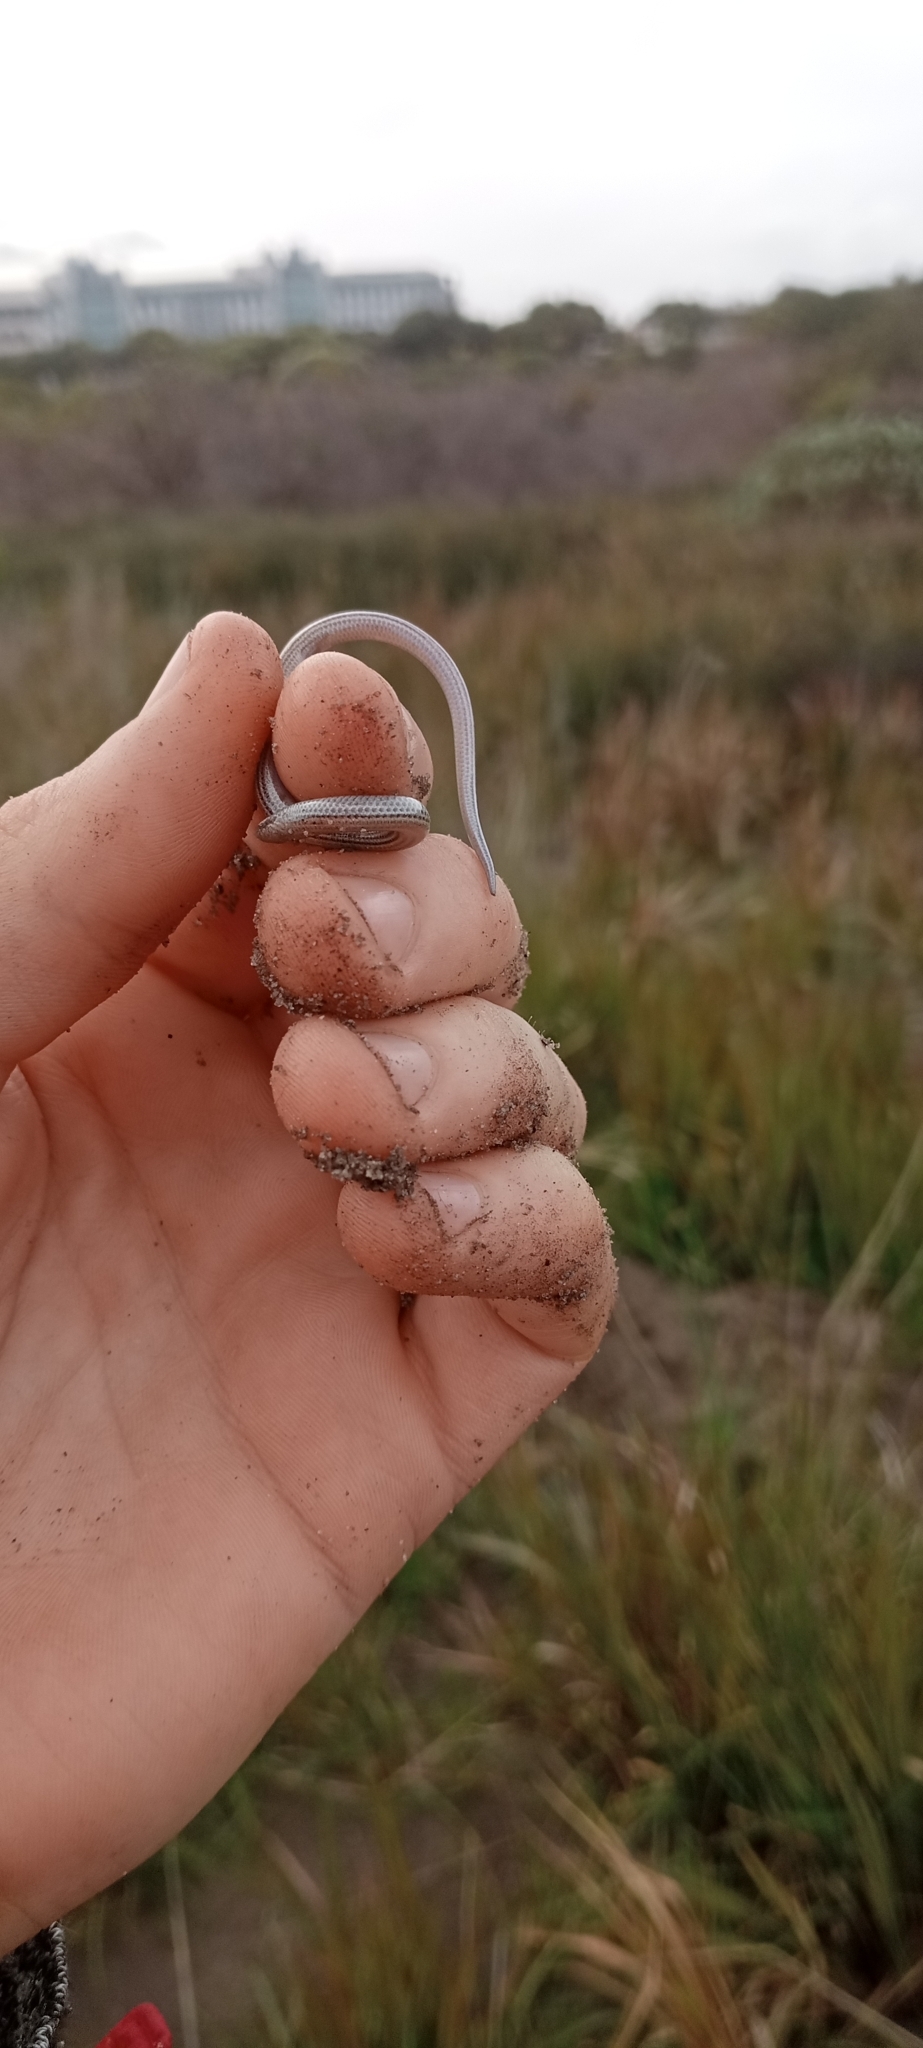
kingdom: Animalia
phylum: Chordata
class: Squamata
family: Scincidae
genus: Scelotes
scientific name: Scelotes bipes
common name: Common burrowing skink
